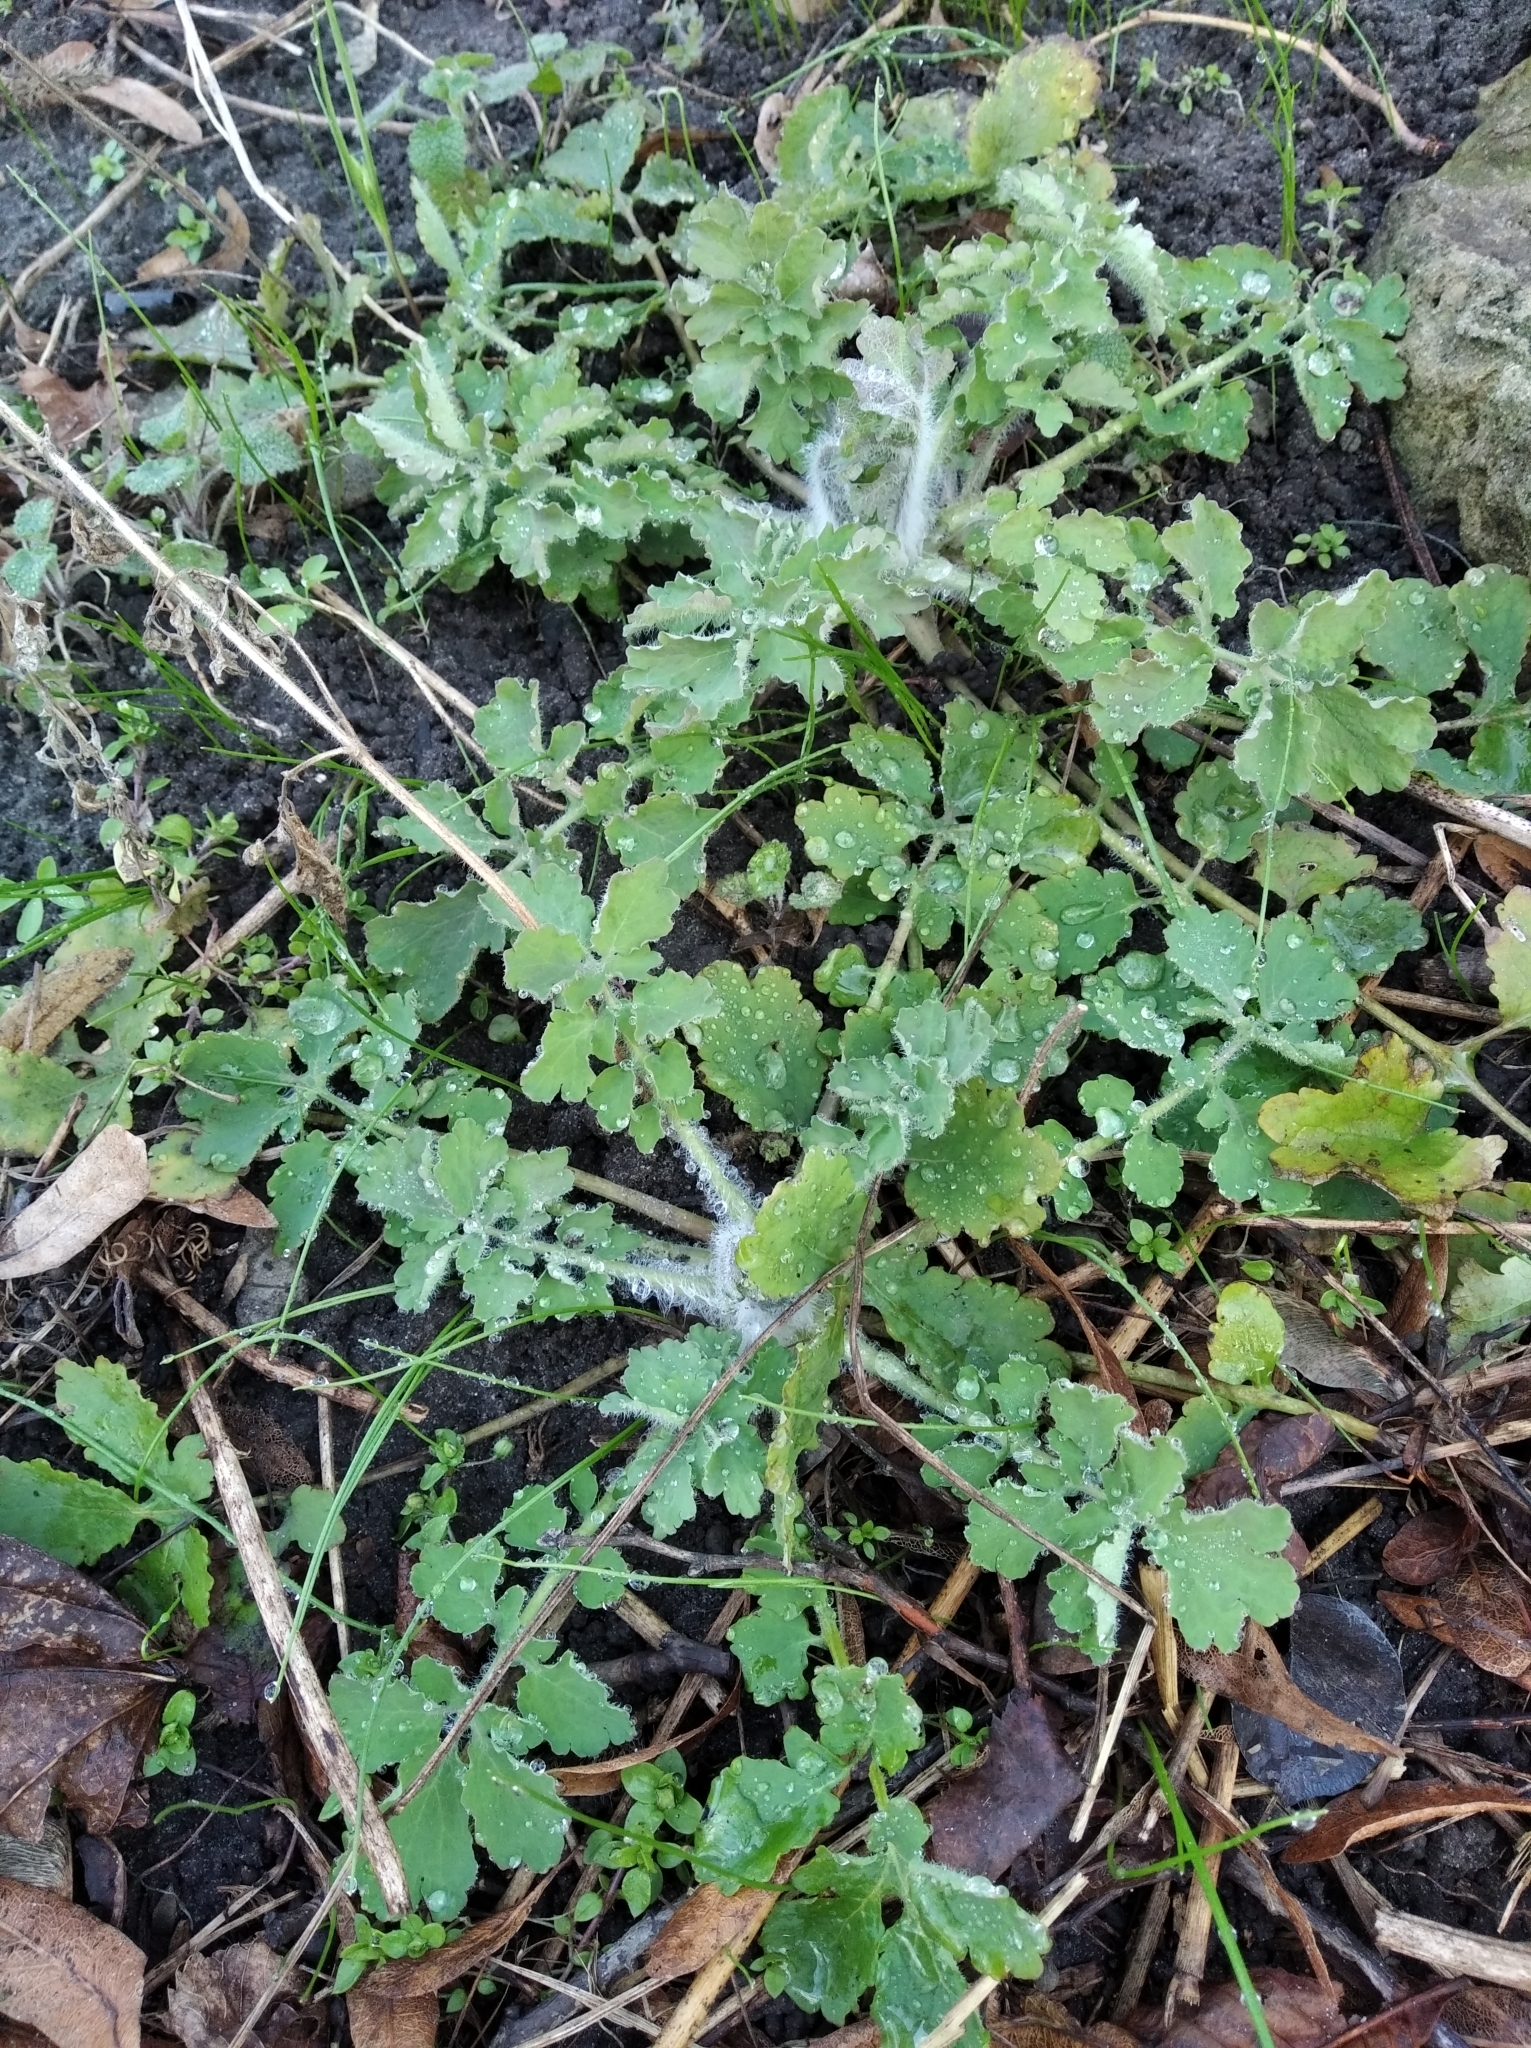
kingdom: Plantae
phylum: Tracheophyta
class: Magnoliopsida
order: Ranunculales
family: Papaveraceae
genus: Chelidonium
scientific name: Chelidonium majus
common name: Greater celandine
